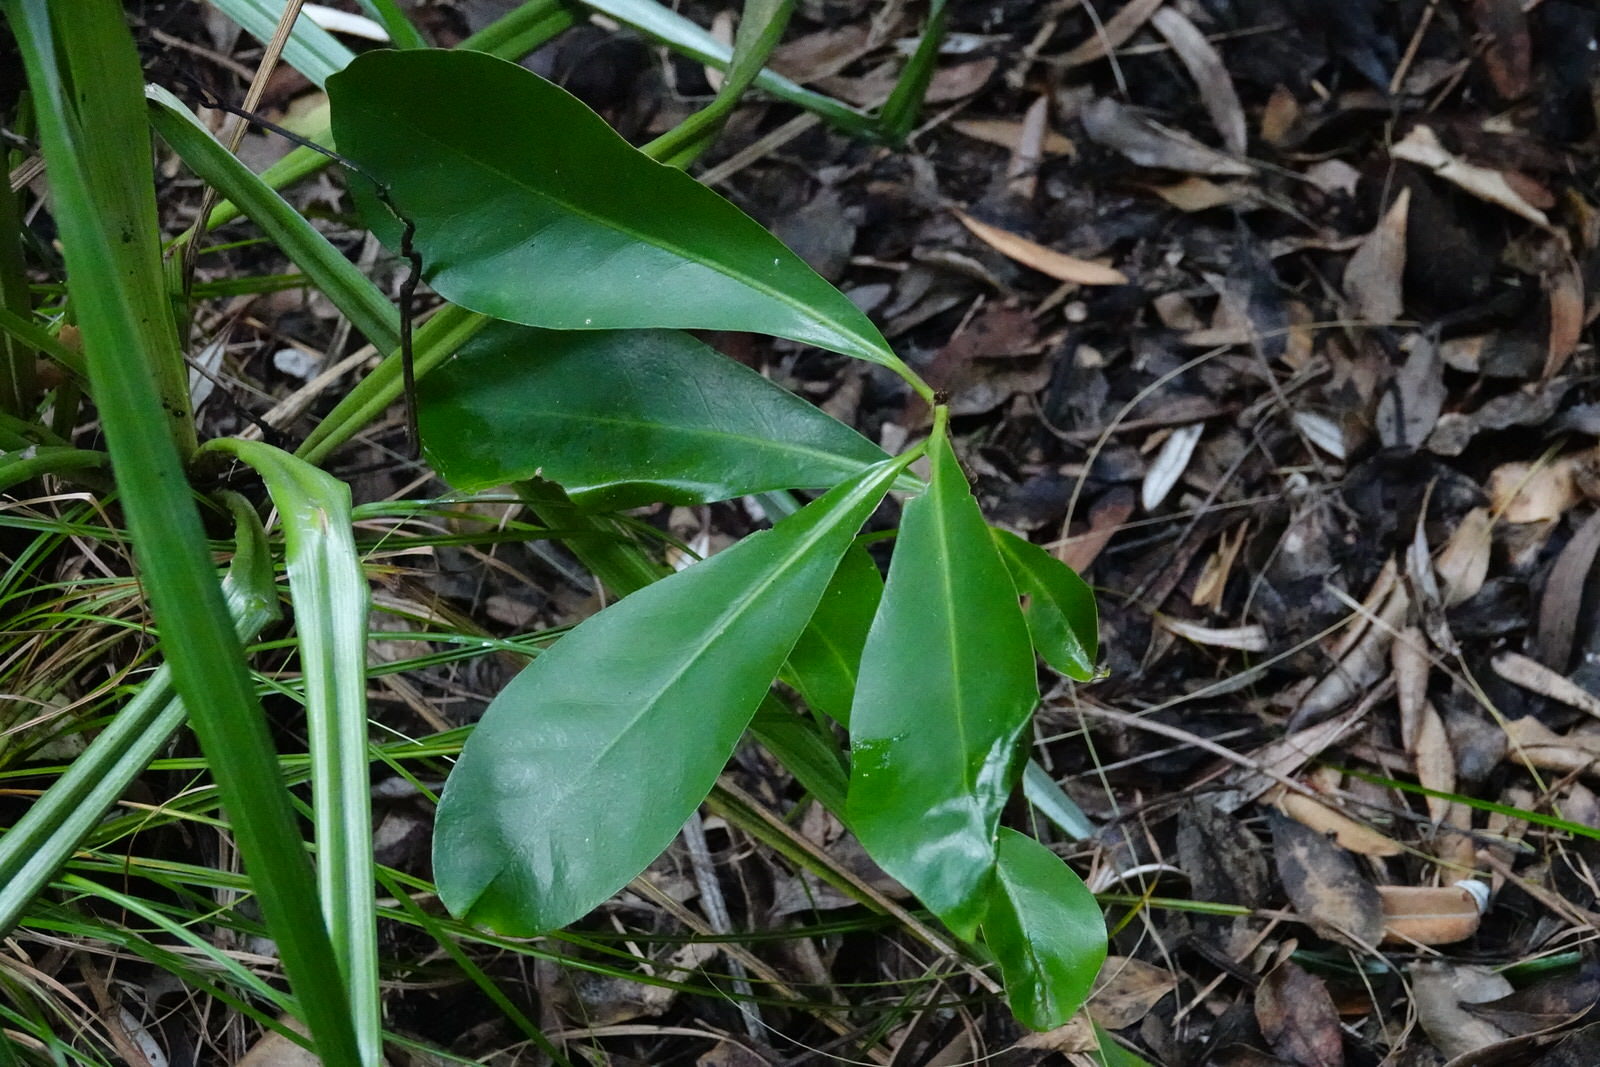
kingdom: Plantae
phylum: Tracheophyta
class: Magnoliopsida
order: Cucurbitales
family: Corynocarpaceae
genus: Corynocarpus
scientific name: Corynocarpus laevigatus
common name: New zealand laurel
